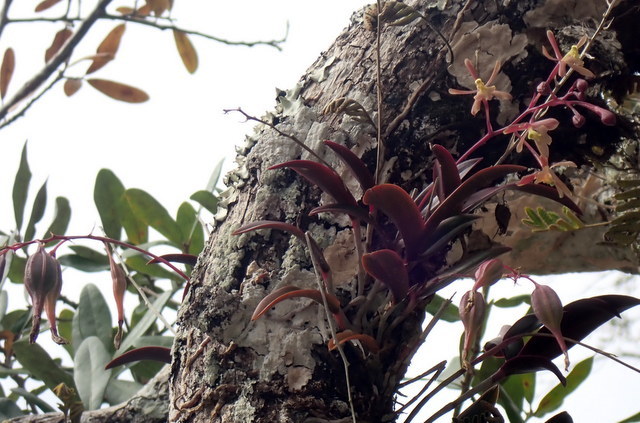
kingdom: Plantae
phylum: Tracheophyta
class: Liliopsida
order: Asparagales
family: Orchidaceae
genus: Epidendrum
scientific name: Epidendrum conopseum
